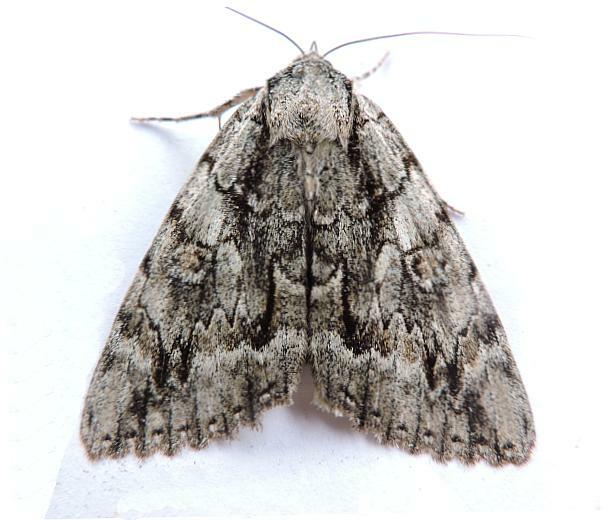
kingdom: Animalia
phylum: Arthropoda
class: Insecta
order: Lepidoptera
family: Erebidae
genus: Catocala
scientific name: Catocala retecta
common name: Yellow-gray underwing
